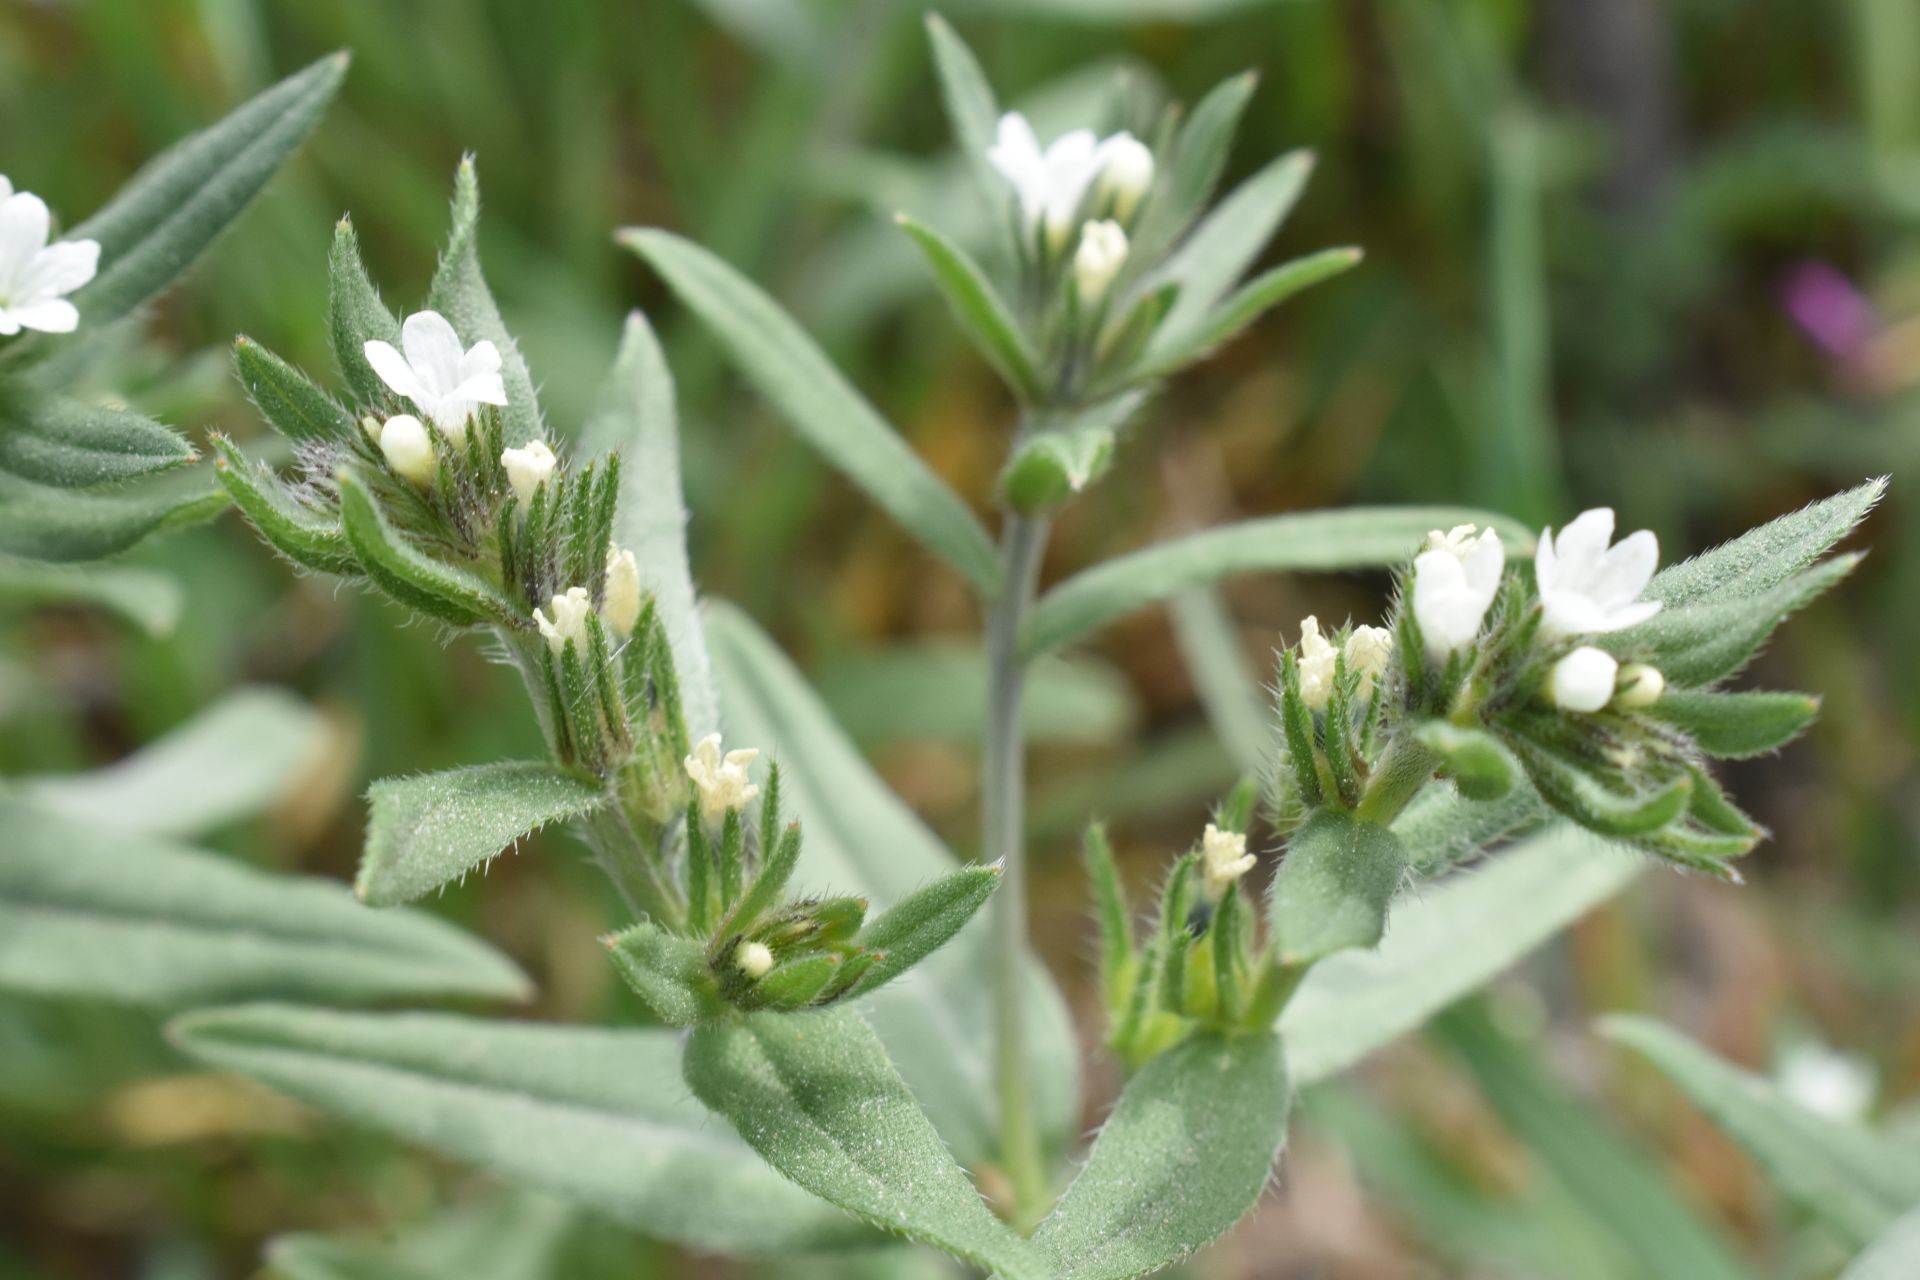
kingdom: Plantae
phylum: Tracheophyta
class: Magnoliopsida
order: Boraginales
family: Boraginaceae
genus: Buglossoides
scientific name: Buglossoides arvensis
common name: Corn gromwell
